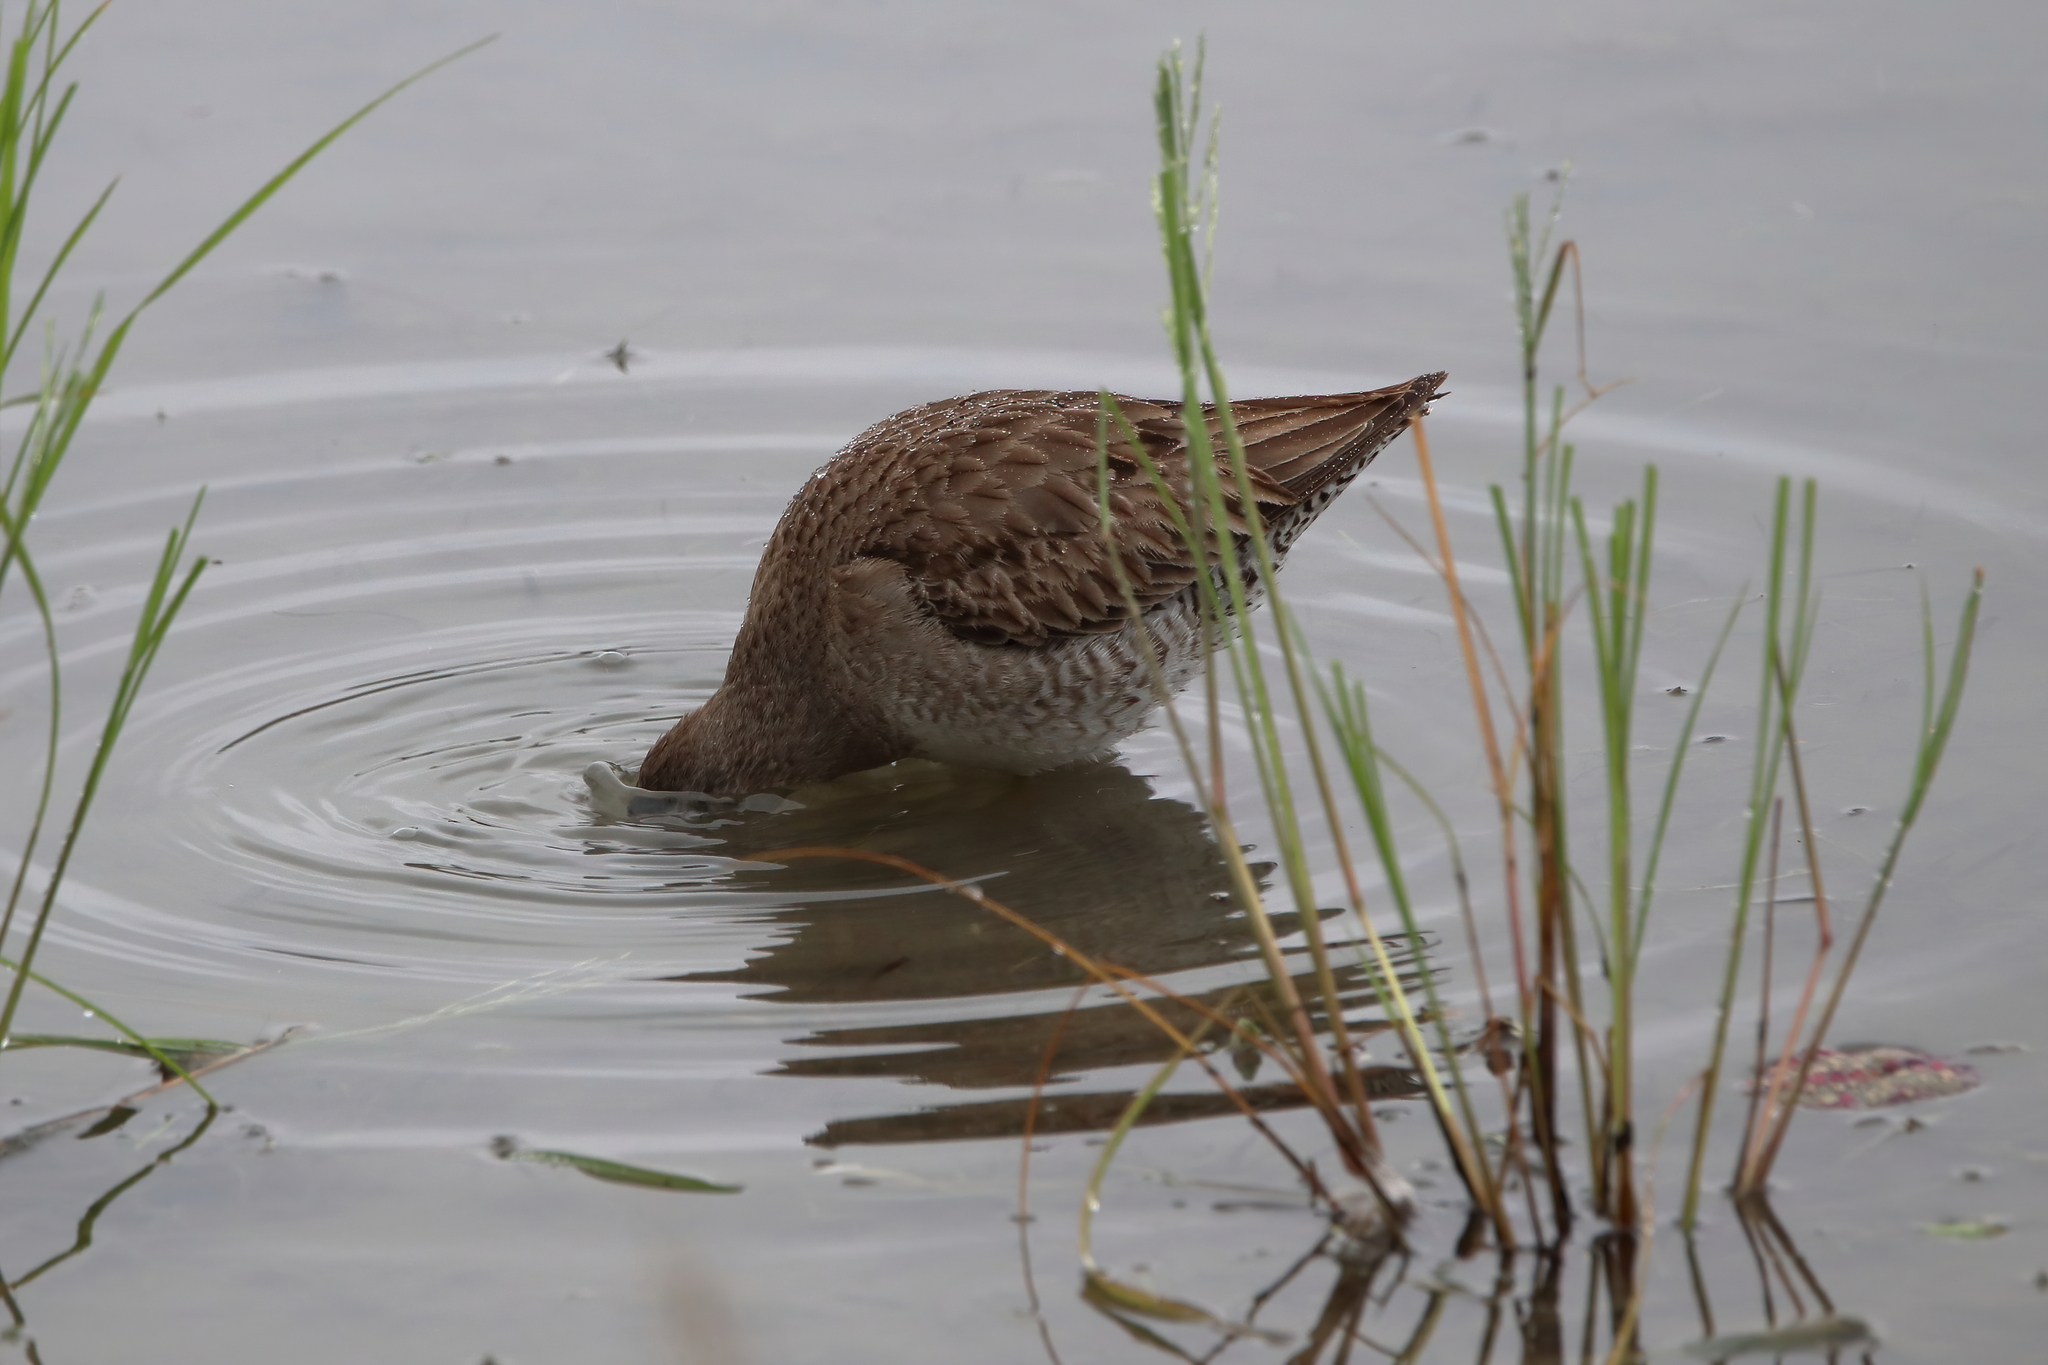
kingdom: Animalia
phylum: Chordata
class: Aves
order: Charadriiformes
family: Scolopacidae
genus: Limnodromus
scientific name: Limnodromus scolopaceus
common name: Long-billed dowitcher
